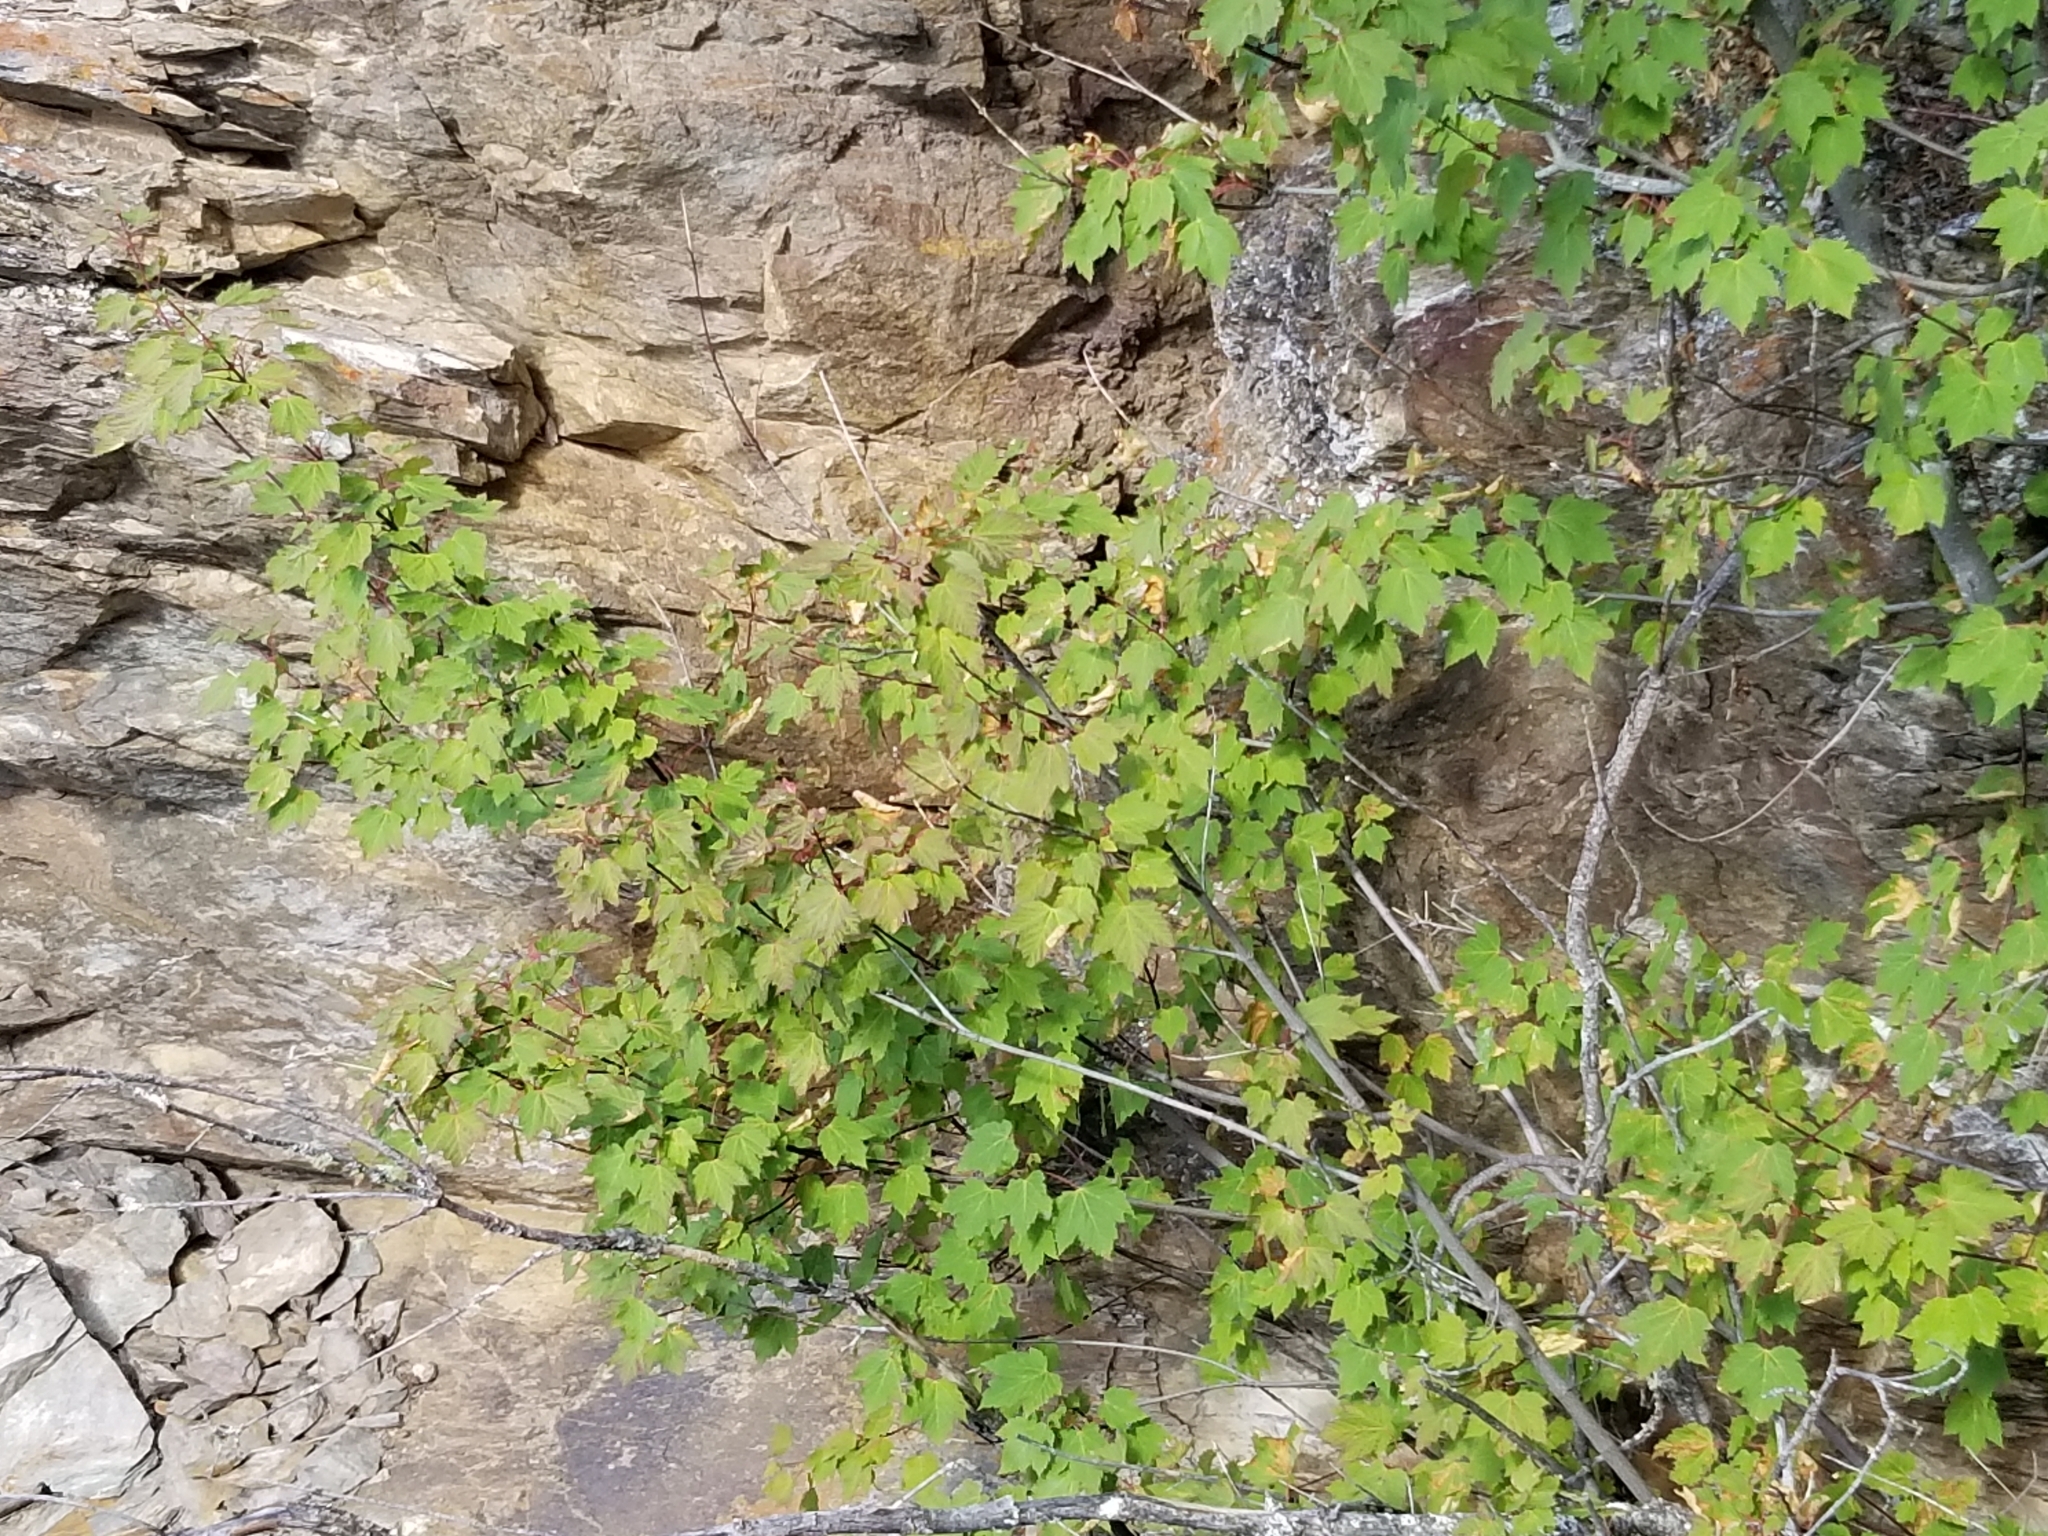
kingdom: Plantae
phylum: Tracheophyta
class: Magnoliopsida
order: Sapindales
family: Sapindaceae
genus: Acer
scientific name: Acer glabrum
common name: Rocky mountain maple
